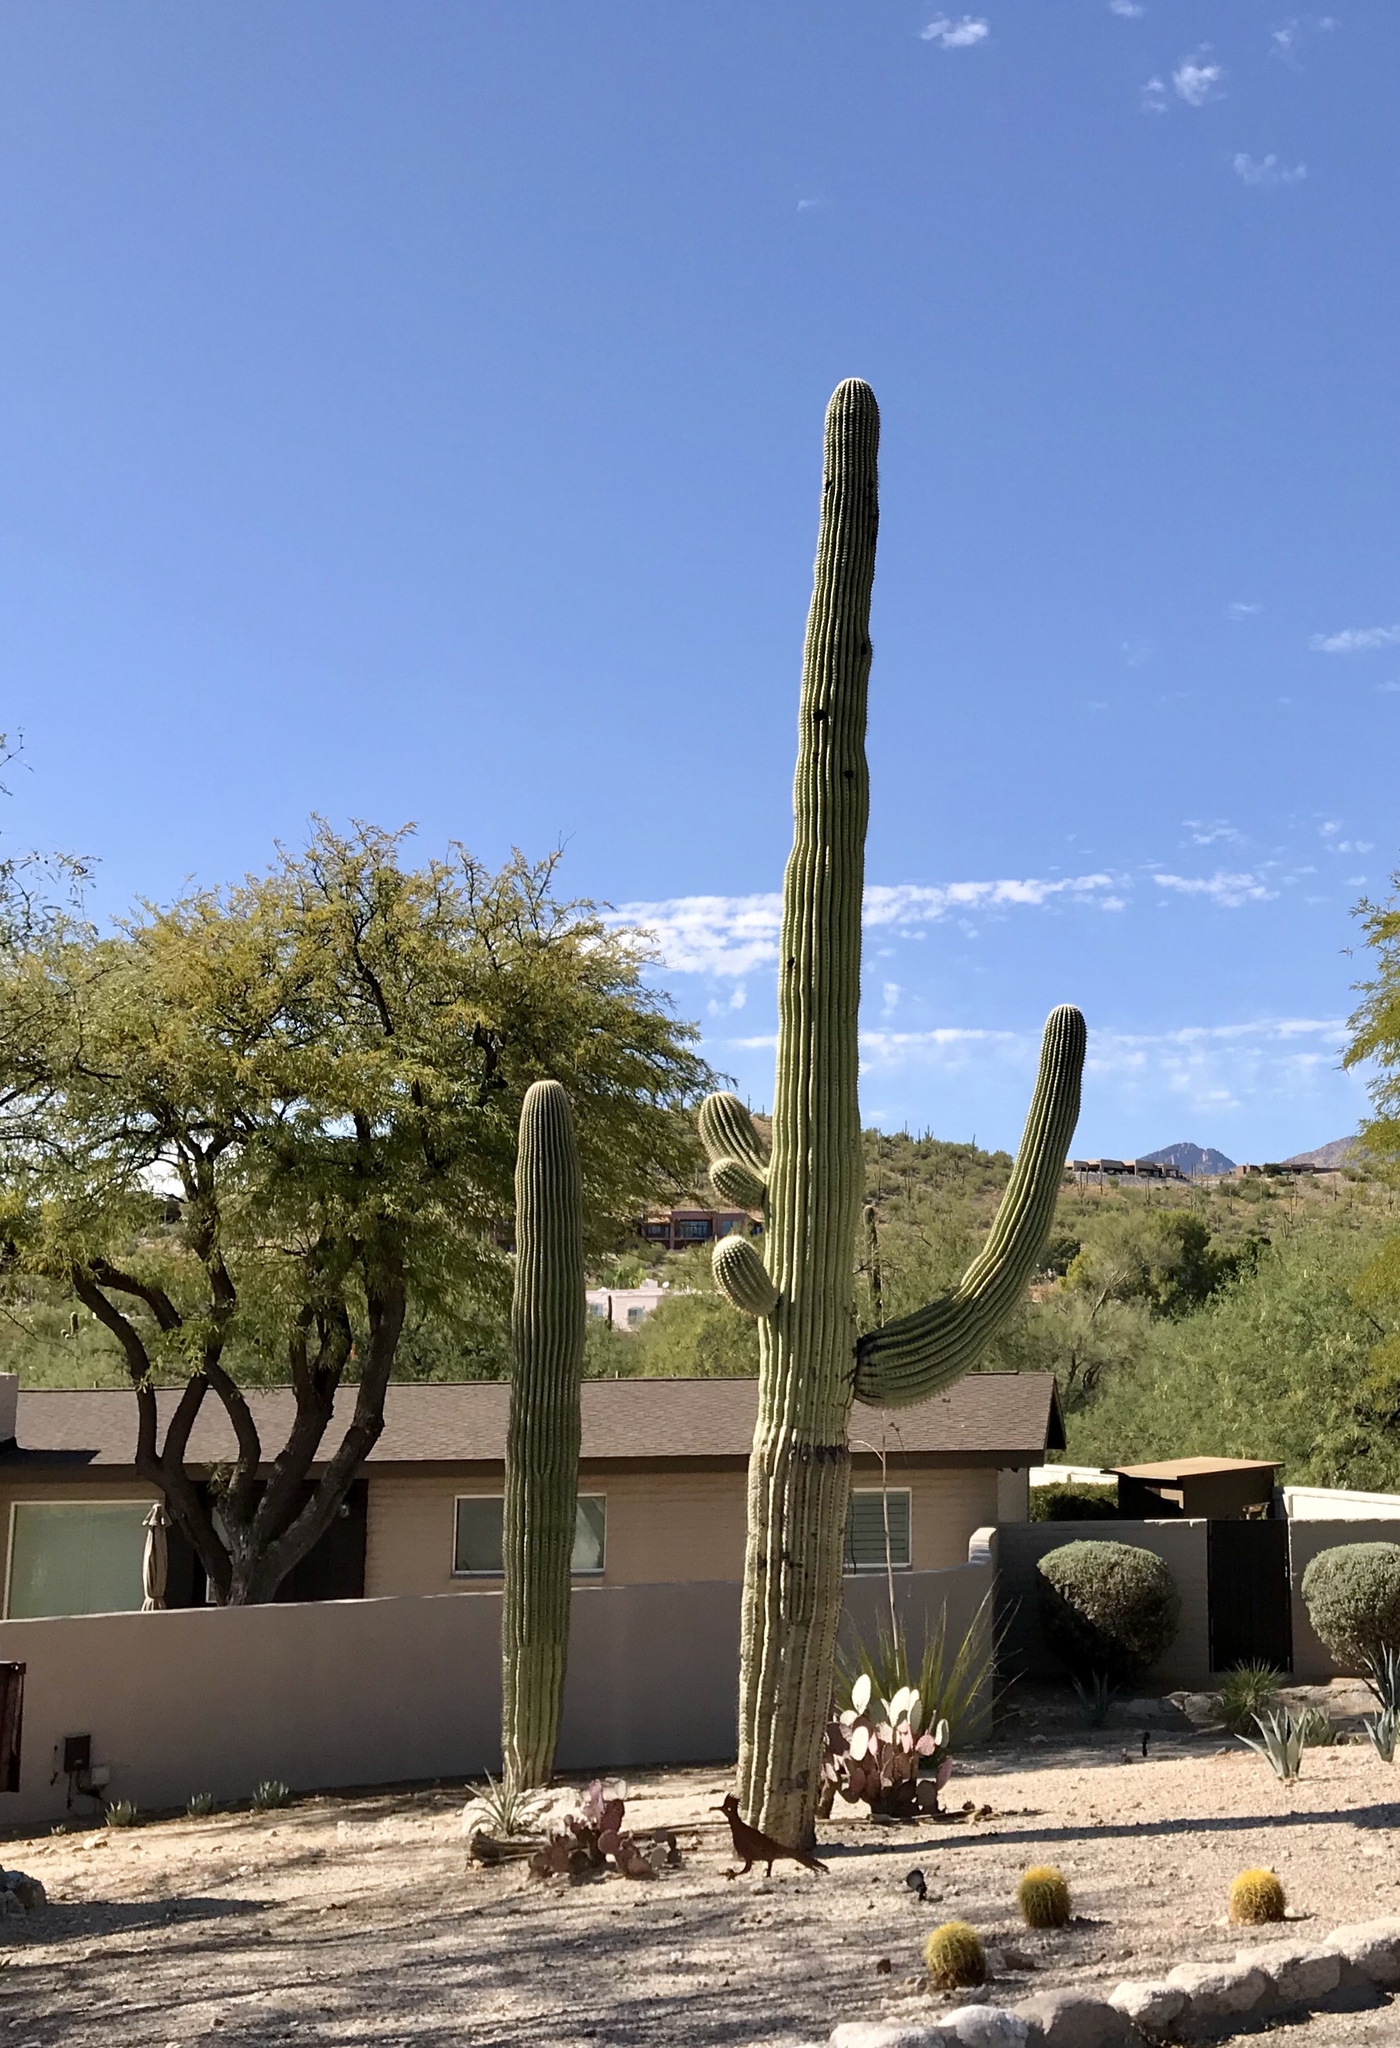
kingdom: Plantae
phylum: Tracheophyta
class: Magnoliopsida
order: Caryophyllales
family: Cactaceae
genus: Carnegiea
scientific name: Carnegiea gigantea
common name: Saguaro
